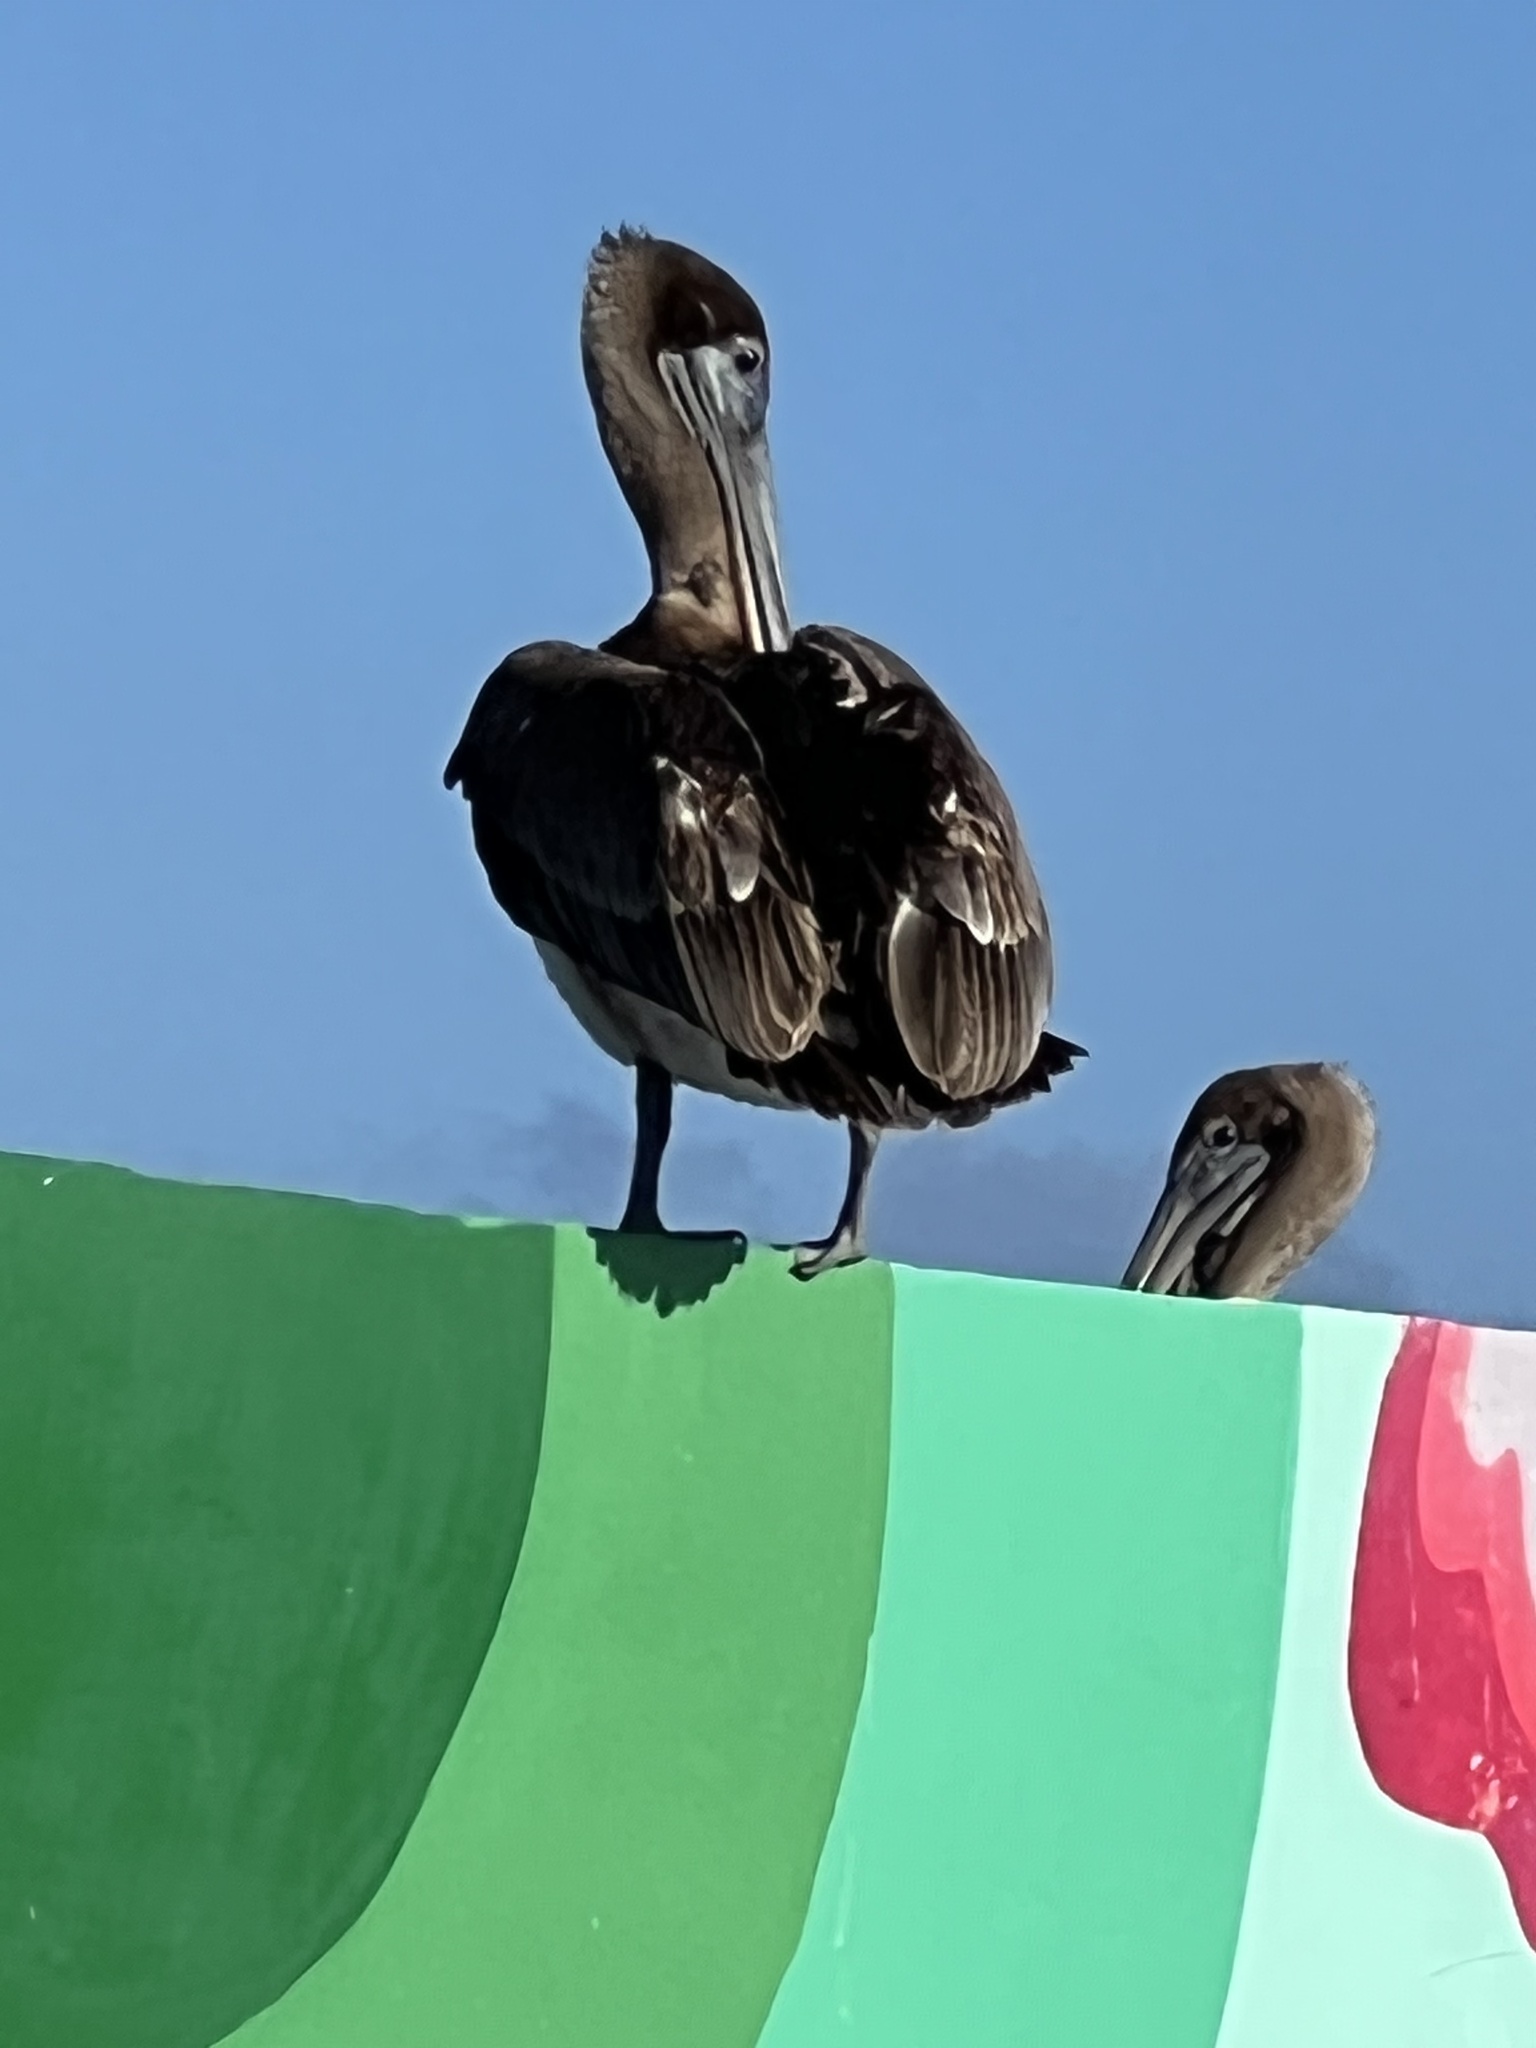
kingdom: Animalia
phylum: Chordata
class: Aves
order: Pelecaniformes
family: Pelecanidae
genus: Pelecanus
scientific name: Pelecanus occidentalis
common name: Brown pelican
